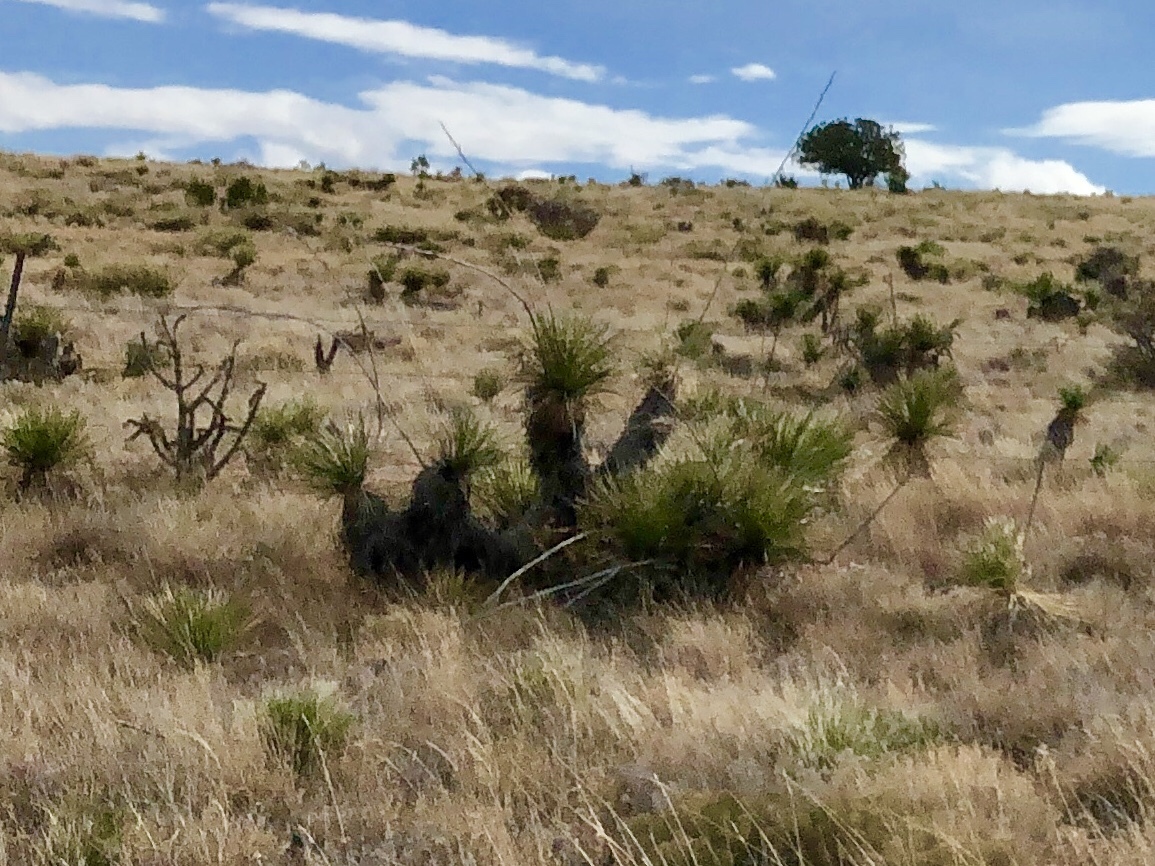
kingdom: Plantae
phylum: Tracheophyta
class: Liliopsida
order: Asparagales
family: Asparagaceae
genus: Yucca
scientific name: Yucca elata
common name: Palmella
